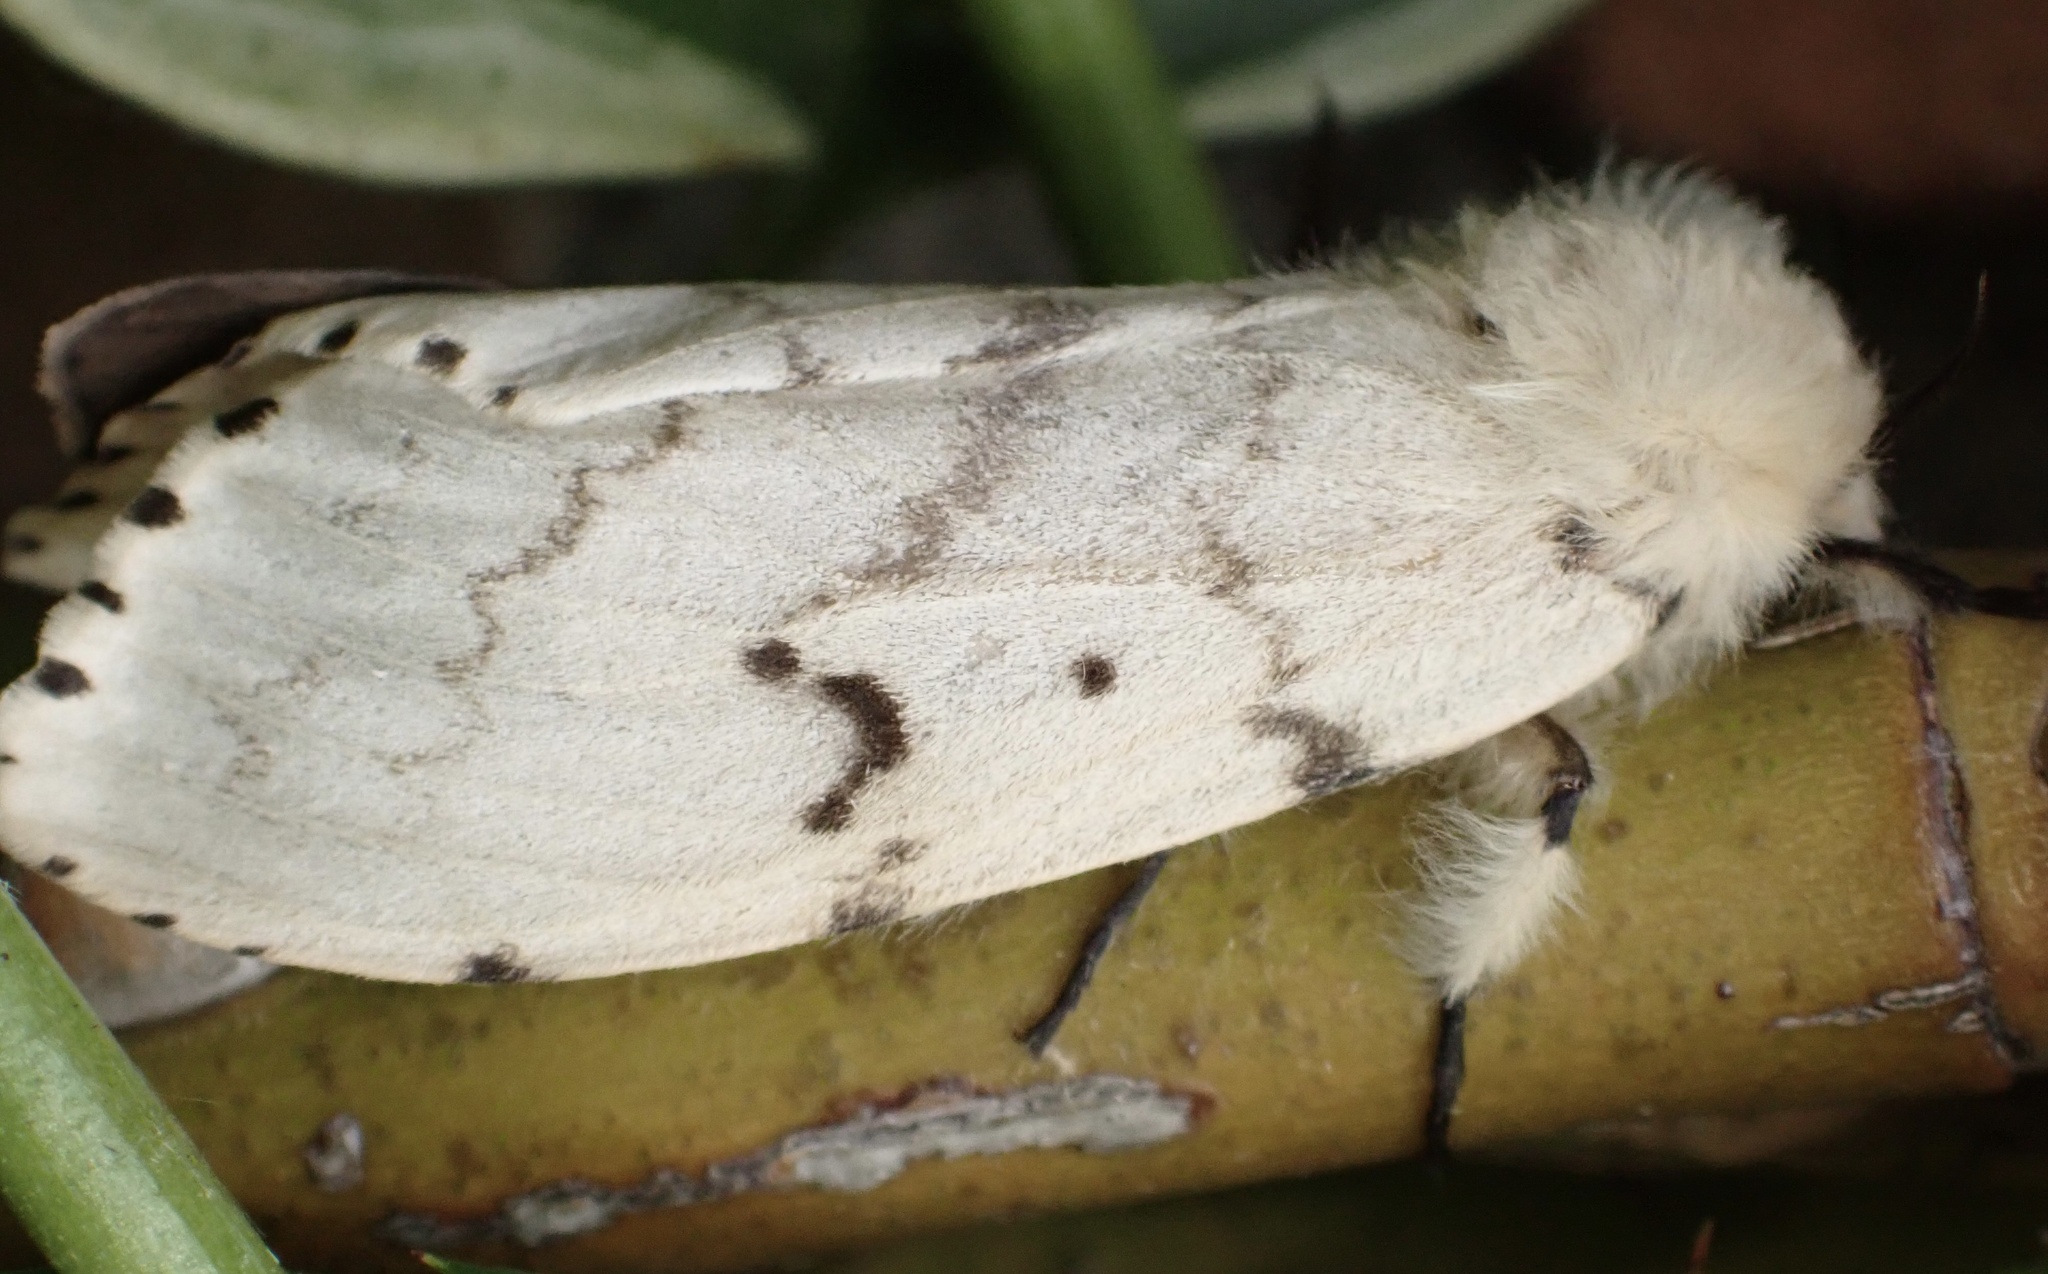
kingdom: Animalia
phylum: Arthropoda
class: Insecta
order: Lepidoptera
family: Erebidae
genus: Lymantria
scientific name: Lymantria dispar
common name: Gypsy moth
